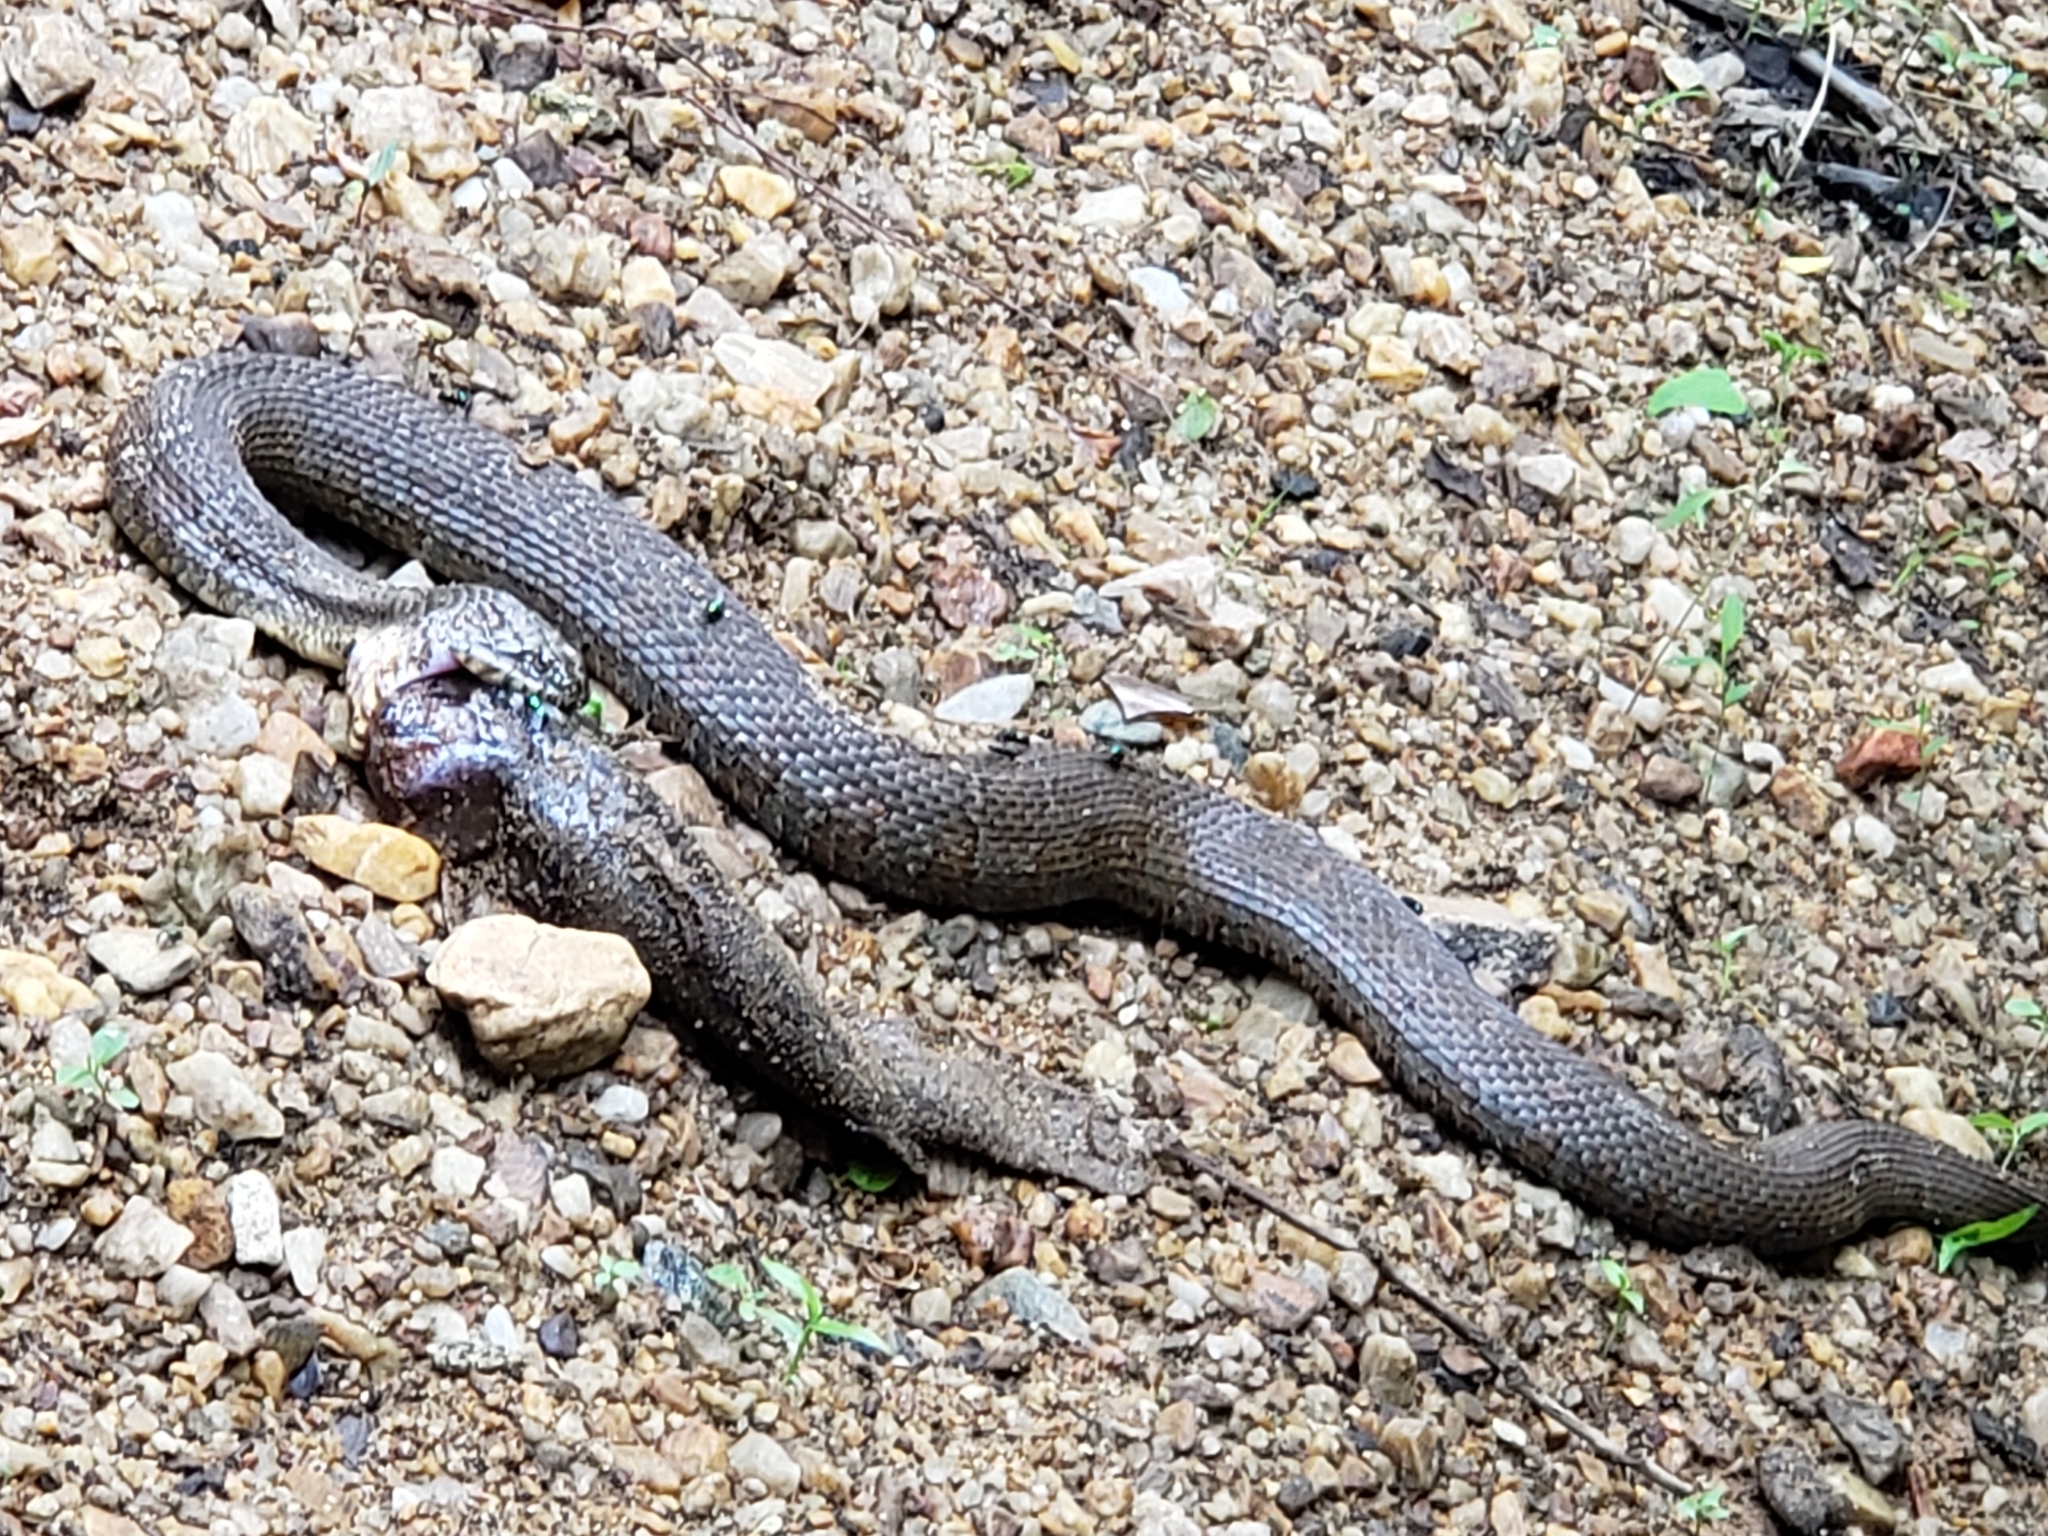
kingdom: Animalia
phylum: Chordata
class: Squamata
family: Colubridae
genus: Nerodia
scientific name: Nerodia sipedon
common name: Northern water snake
